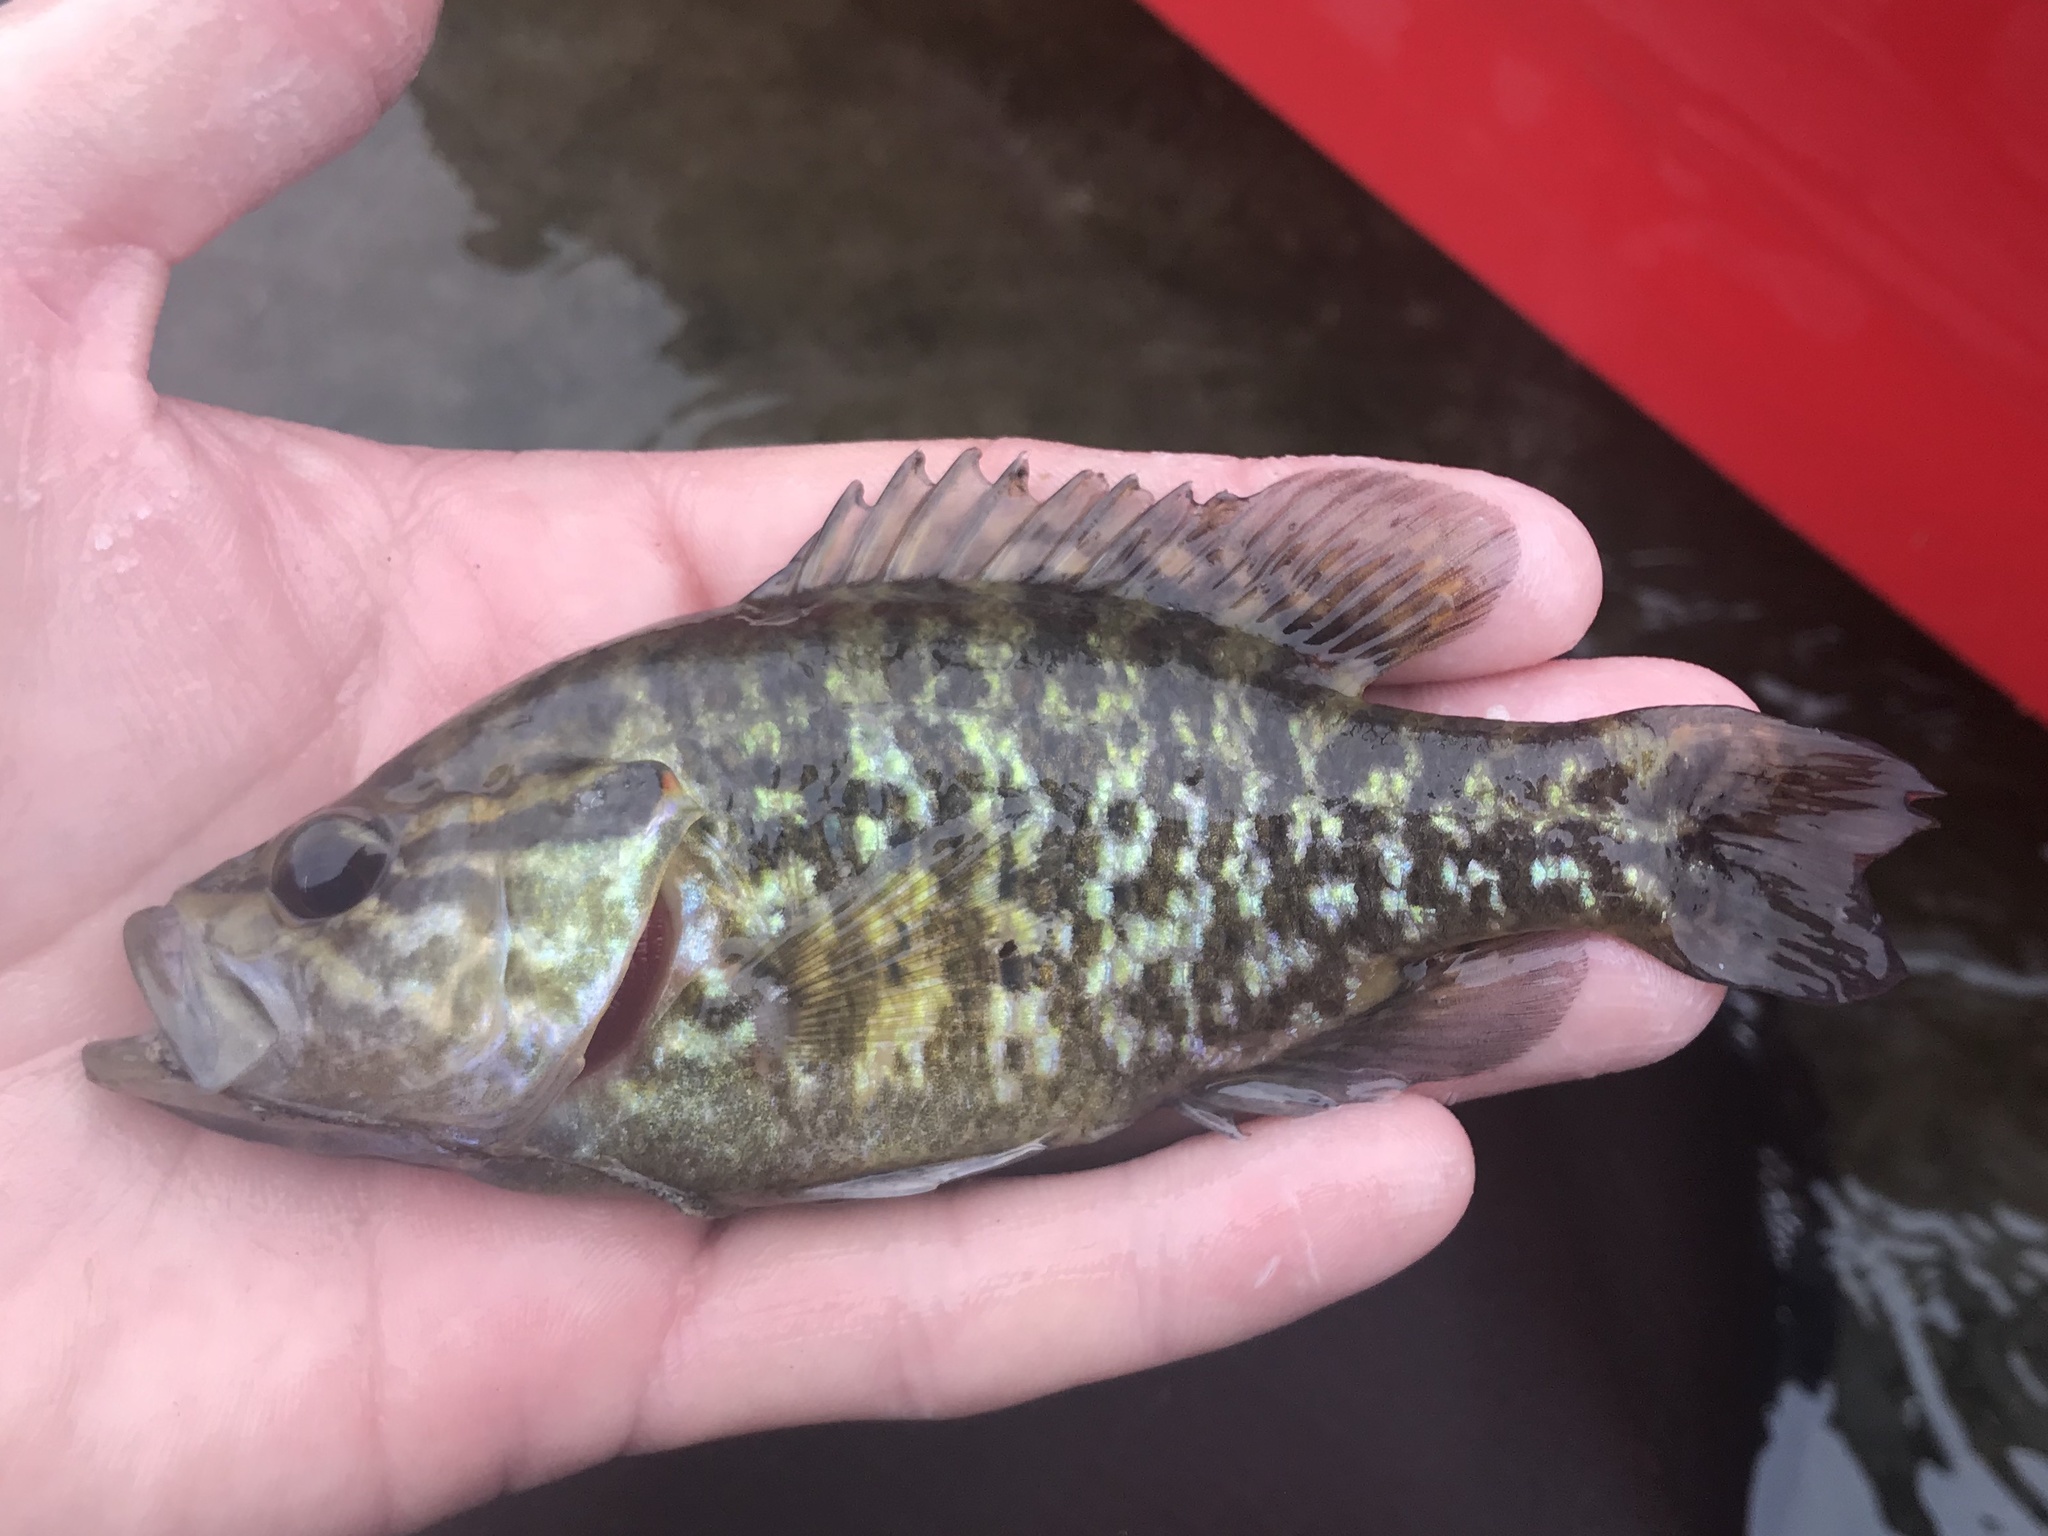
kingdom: Animalia
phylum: Chordata
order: Perciformes
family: Centrarchidae
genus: Lepomis
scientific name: Lepomis gulosus
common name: Warmouth
